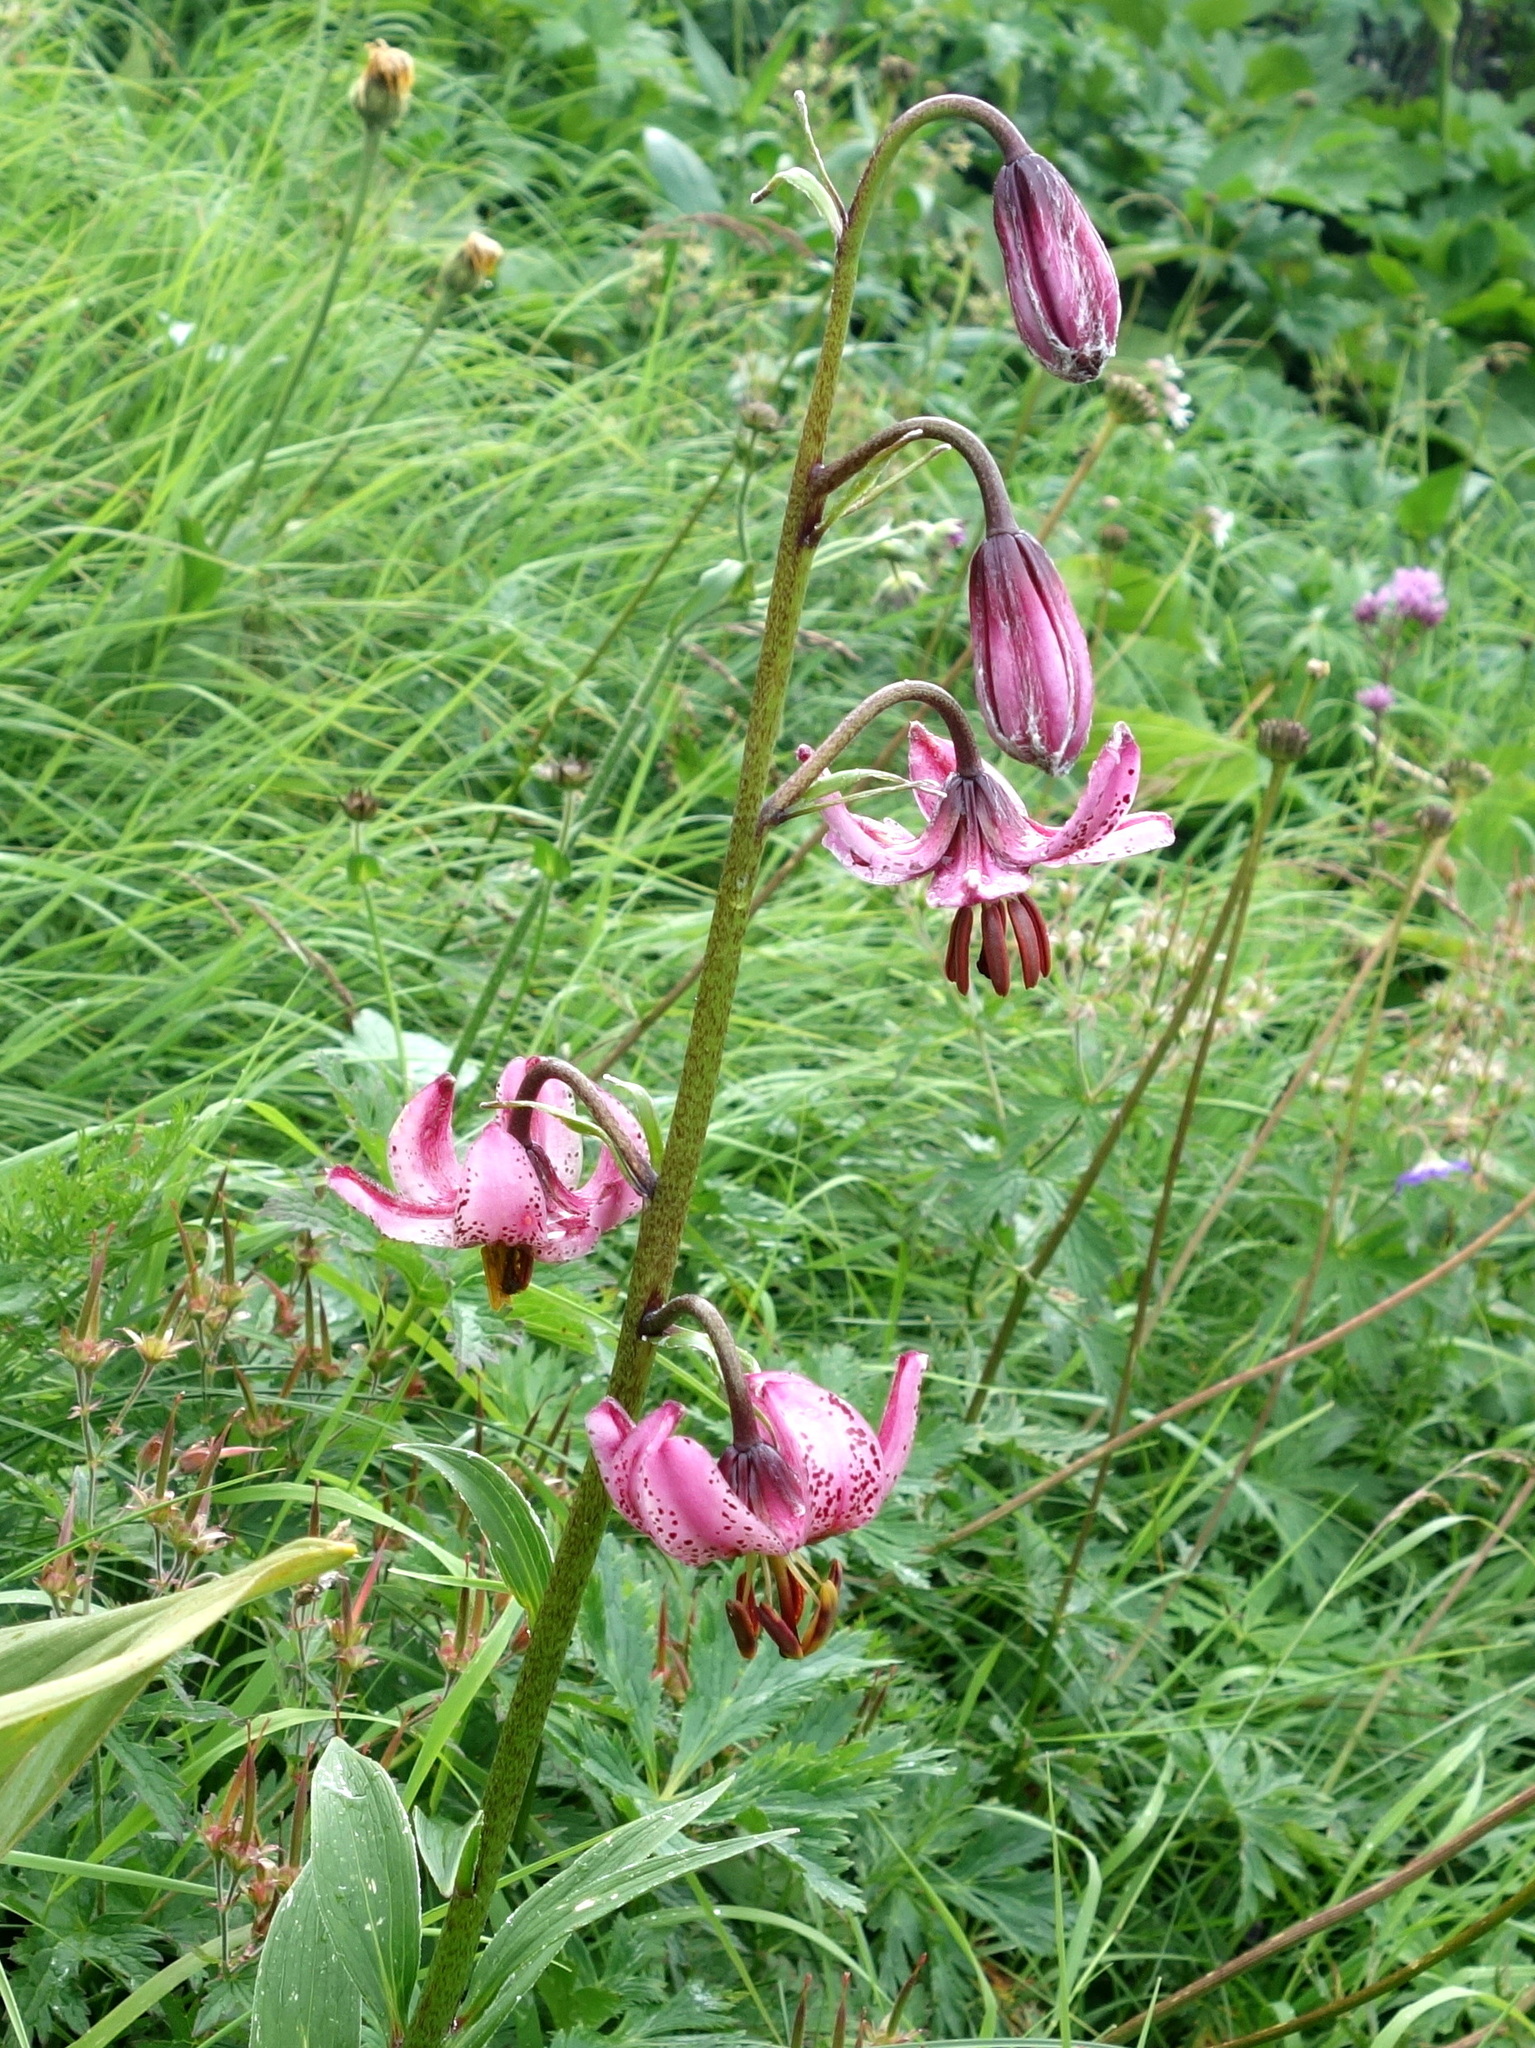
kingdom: Plantae
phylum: Tracheophyta
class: Liliopsida
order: Liliales
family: Liliaceae
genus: Lilium
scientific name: Lilium martagon
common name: Martagon lily
